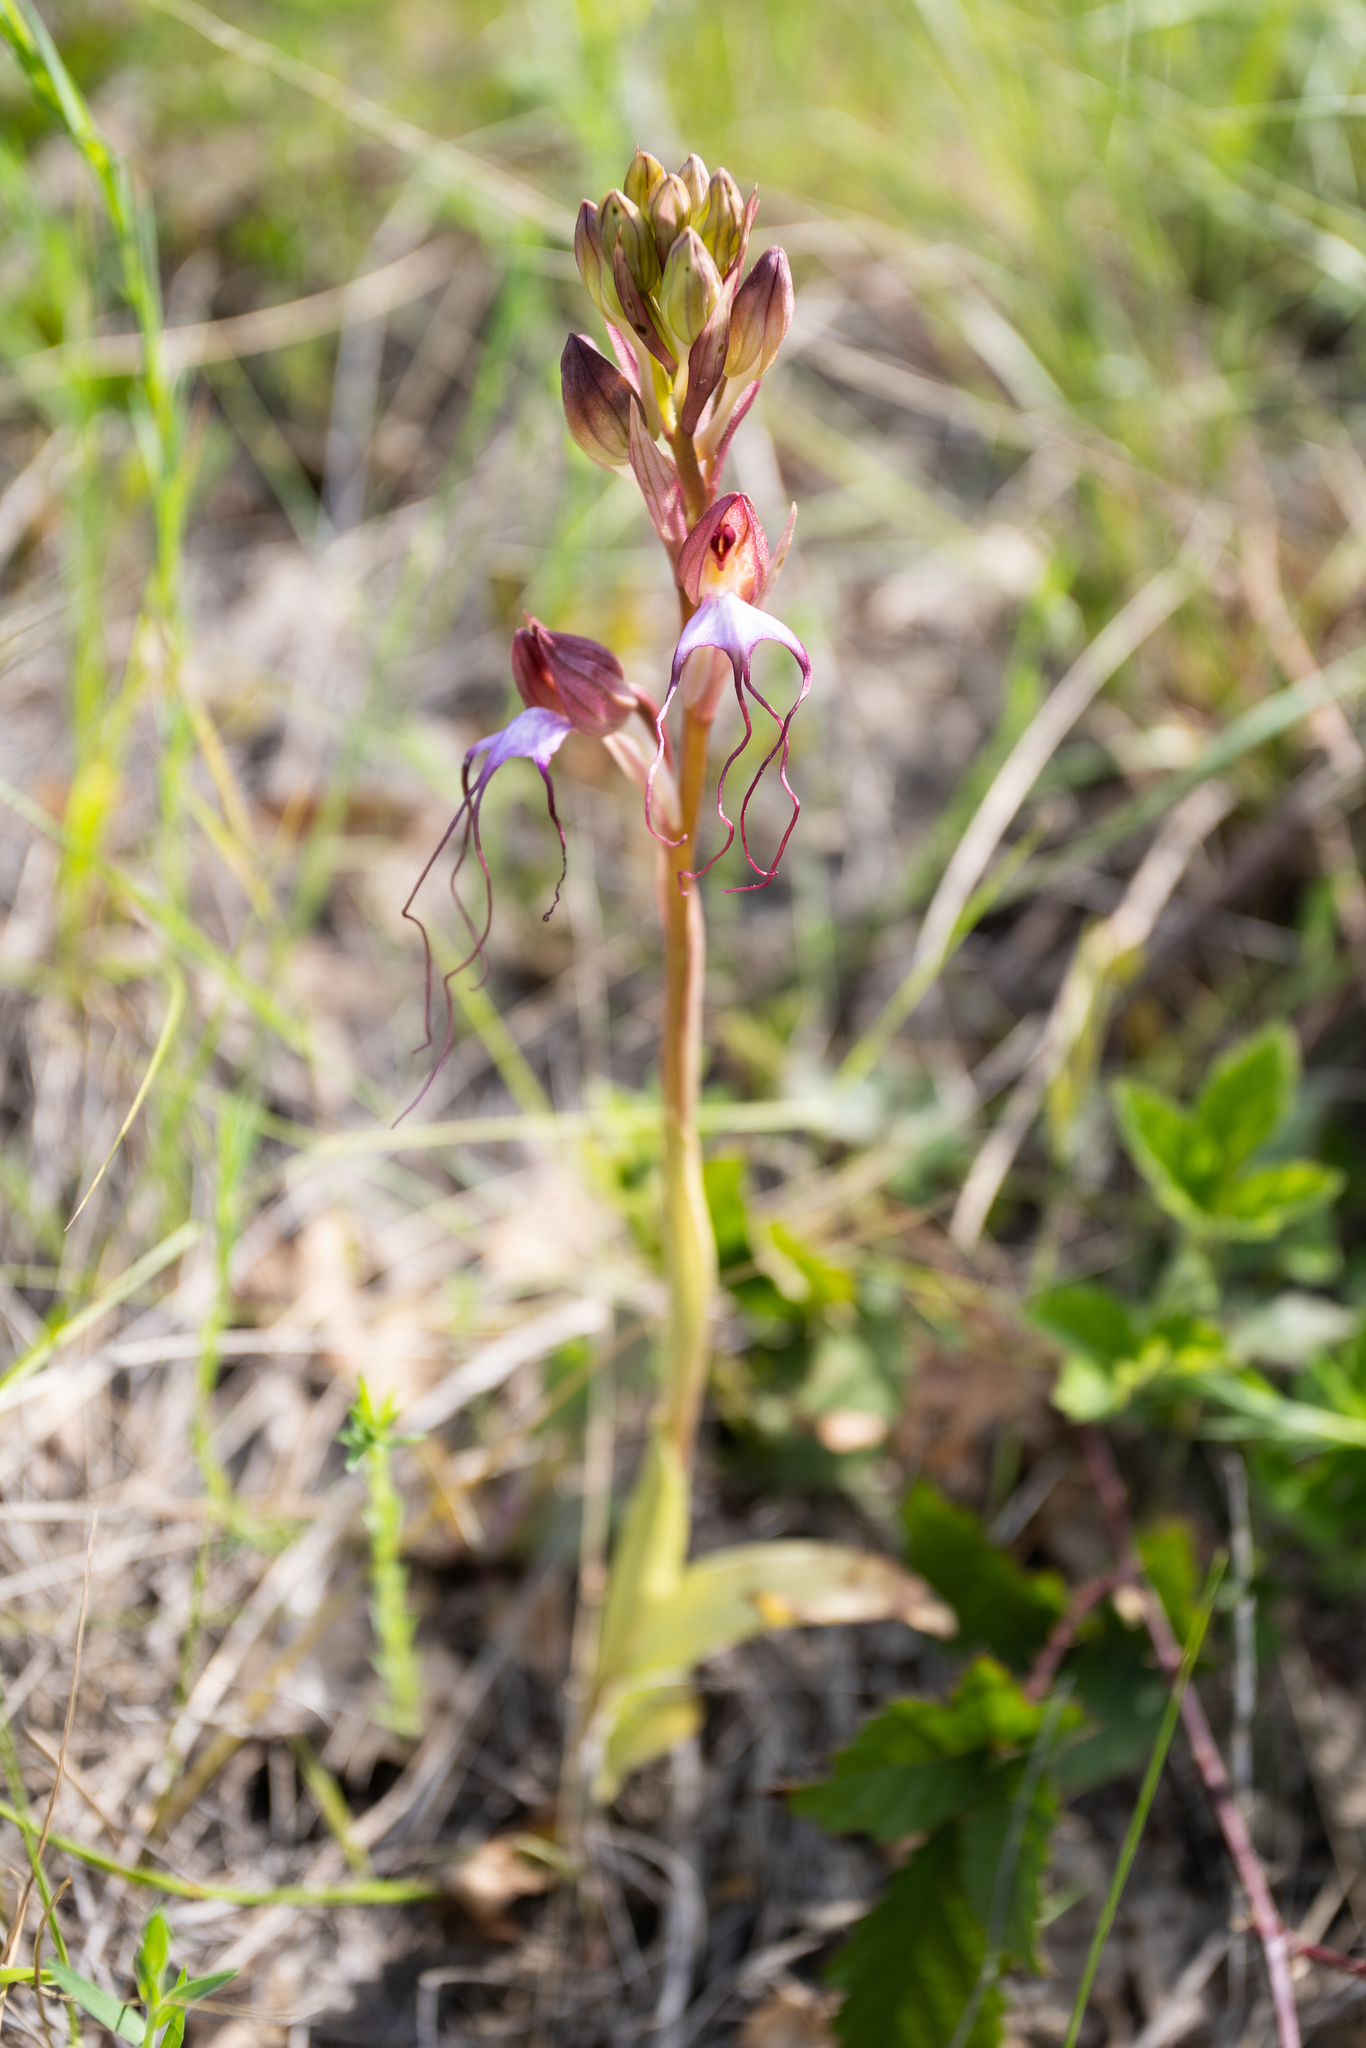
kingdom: Plantae
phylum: Tracheophyta
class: Liliopsida
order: Asparagales
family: Orchidaceae
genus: Himantoglossum
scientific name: Himantoglossum comperianum
